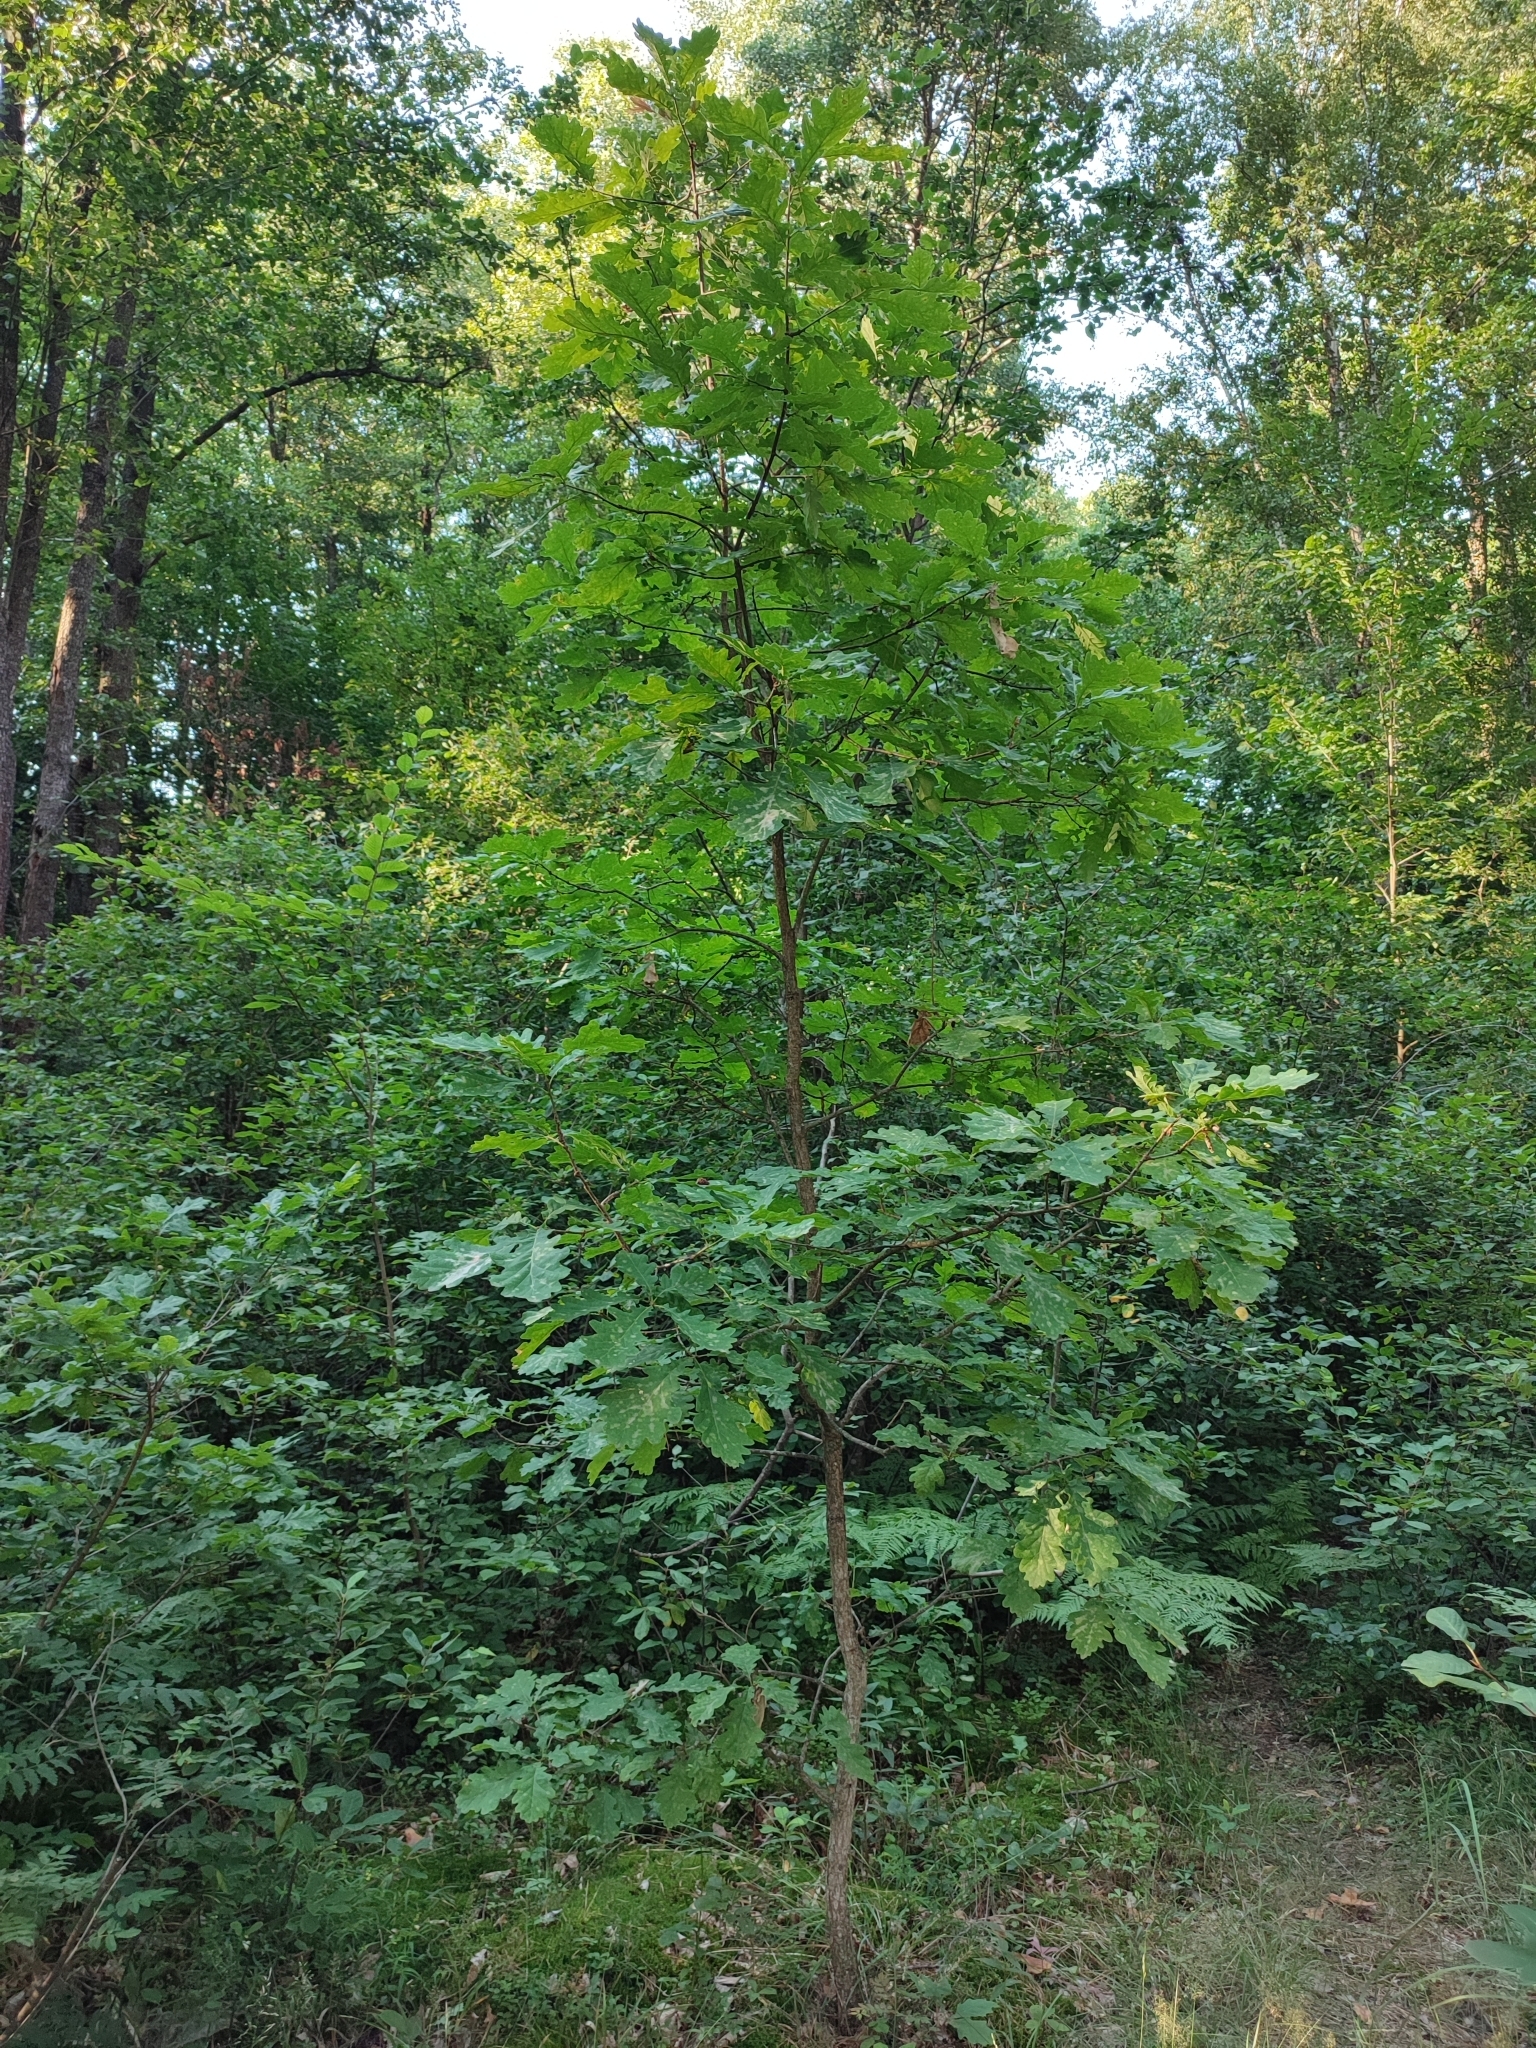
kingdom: Plantae
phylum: Tracheophyta
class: Magnoliopsida
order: Fagales
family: Fagaceae
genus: Quercus
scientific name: Quercus robur
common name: Pedunculate oak
